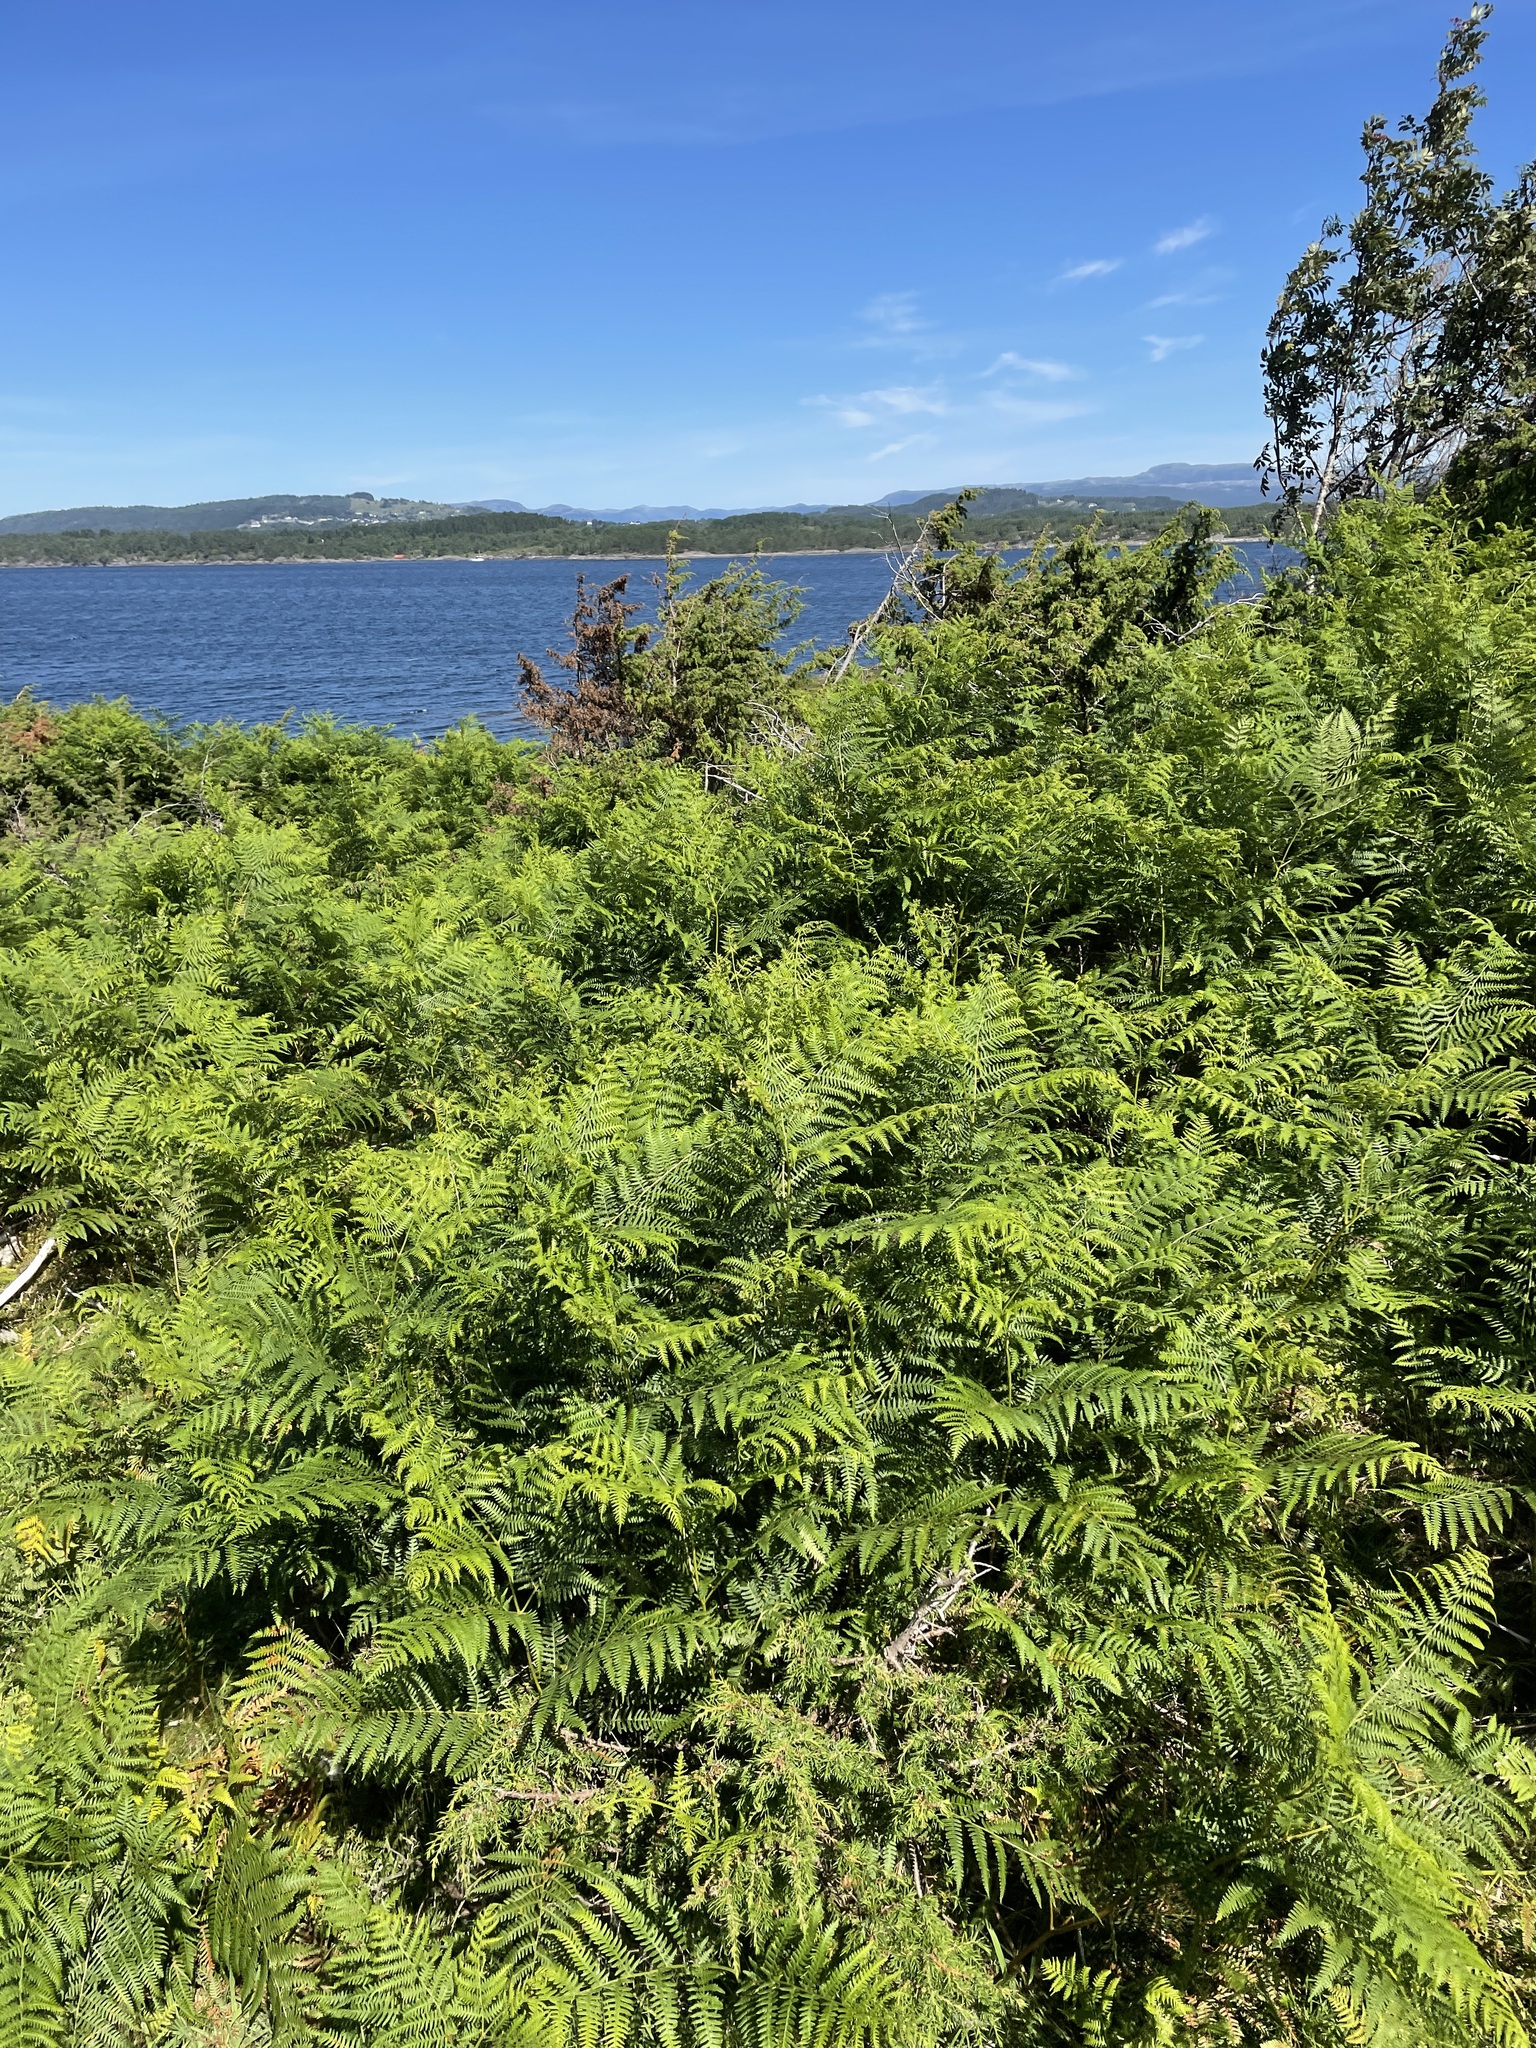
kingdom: Plantae
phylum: Tracheophyta
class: Polypodiopsida
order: Polypodiales
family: Dennstaedtiaceae
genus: Pteridium
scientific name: Pteridium aquilinum
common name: Bracken
